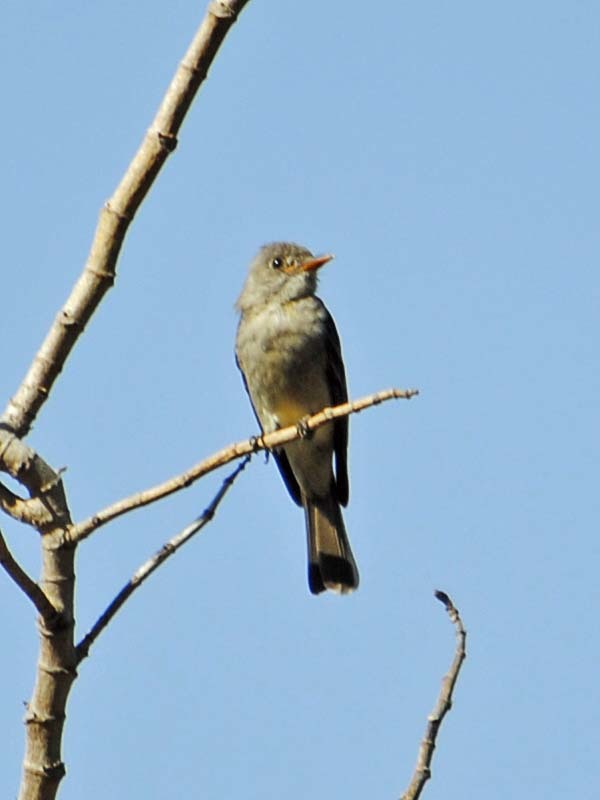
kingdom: Animalia
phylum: Chordata
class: Aves
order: Passeriformes
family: Tyrannidae
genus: Contopus
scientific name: Contopus pertinax
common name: Greater pewee
